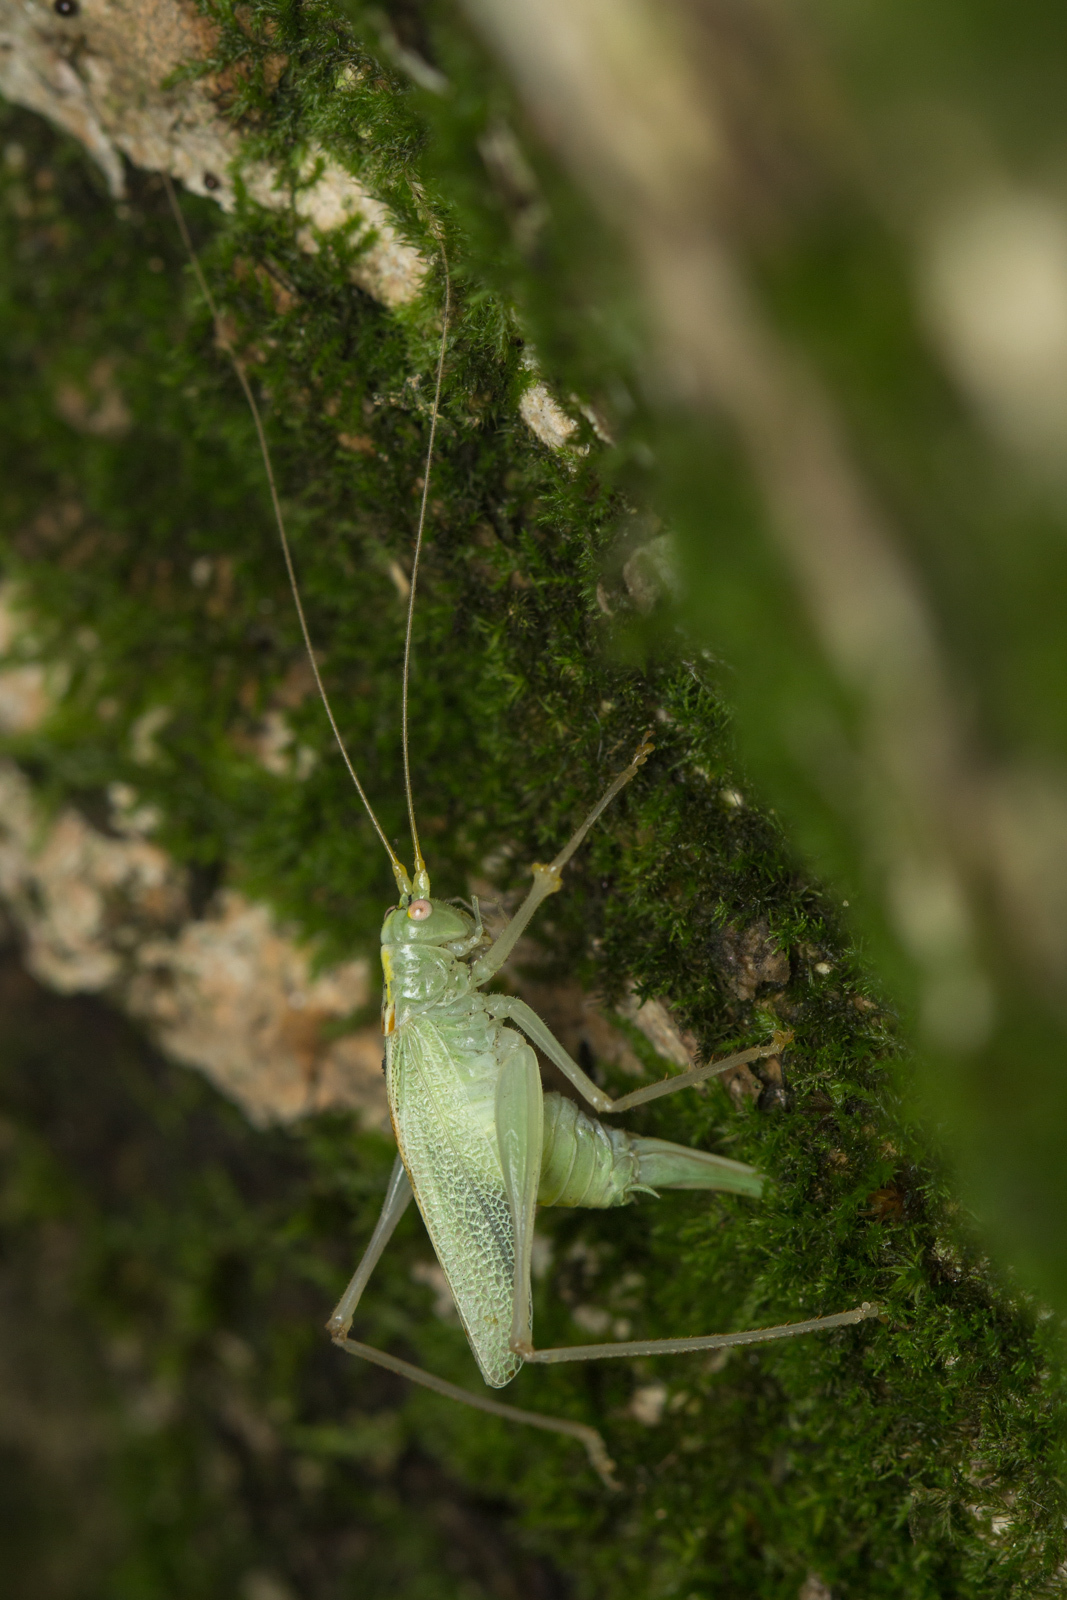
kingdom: Animalia
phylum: Arthropoda
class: Insecta
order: Orthoptera
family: Tettigoniidae
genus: Meconema
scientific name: Meconema thalassinum
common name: Oak bush-cricket
